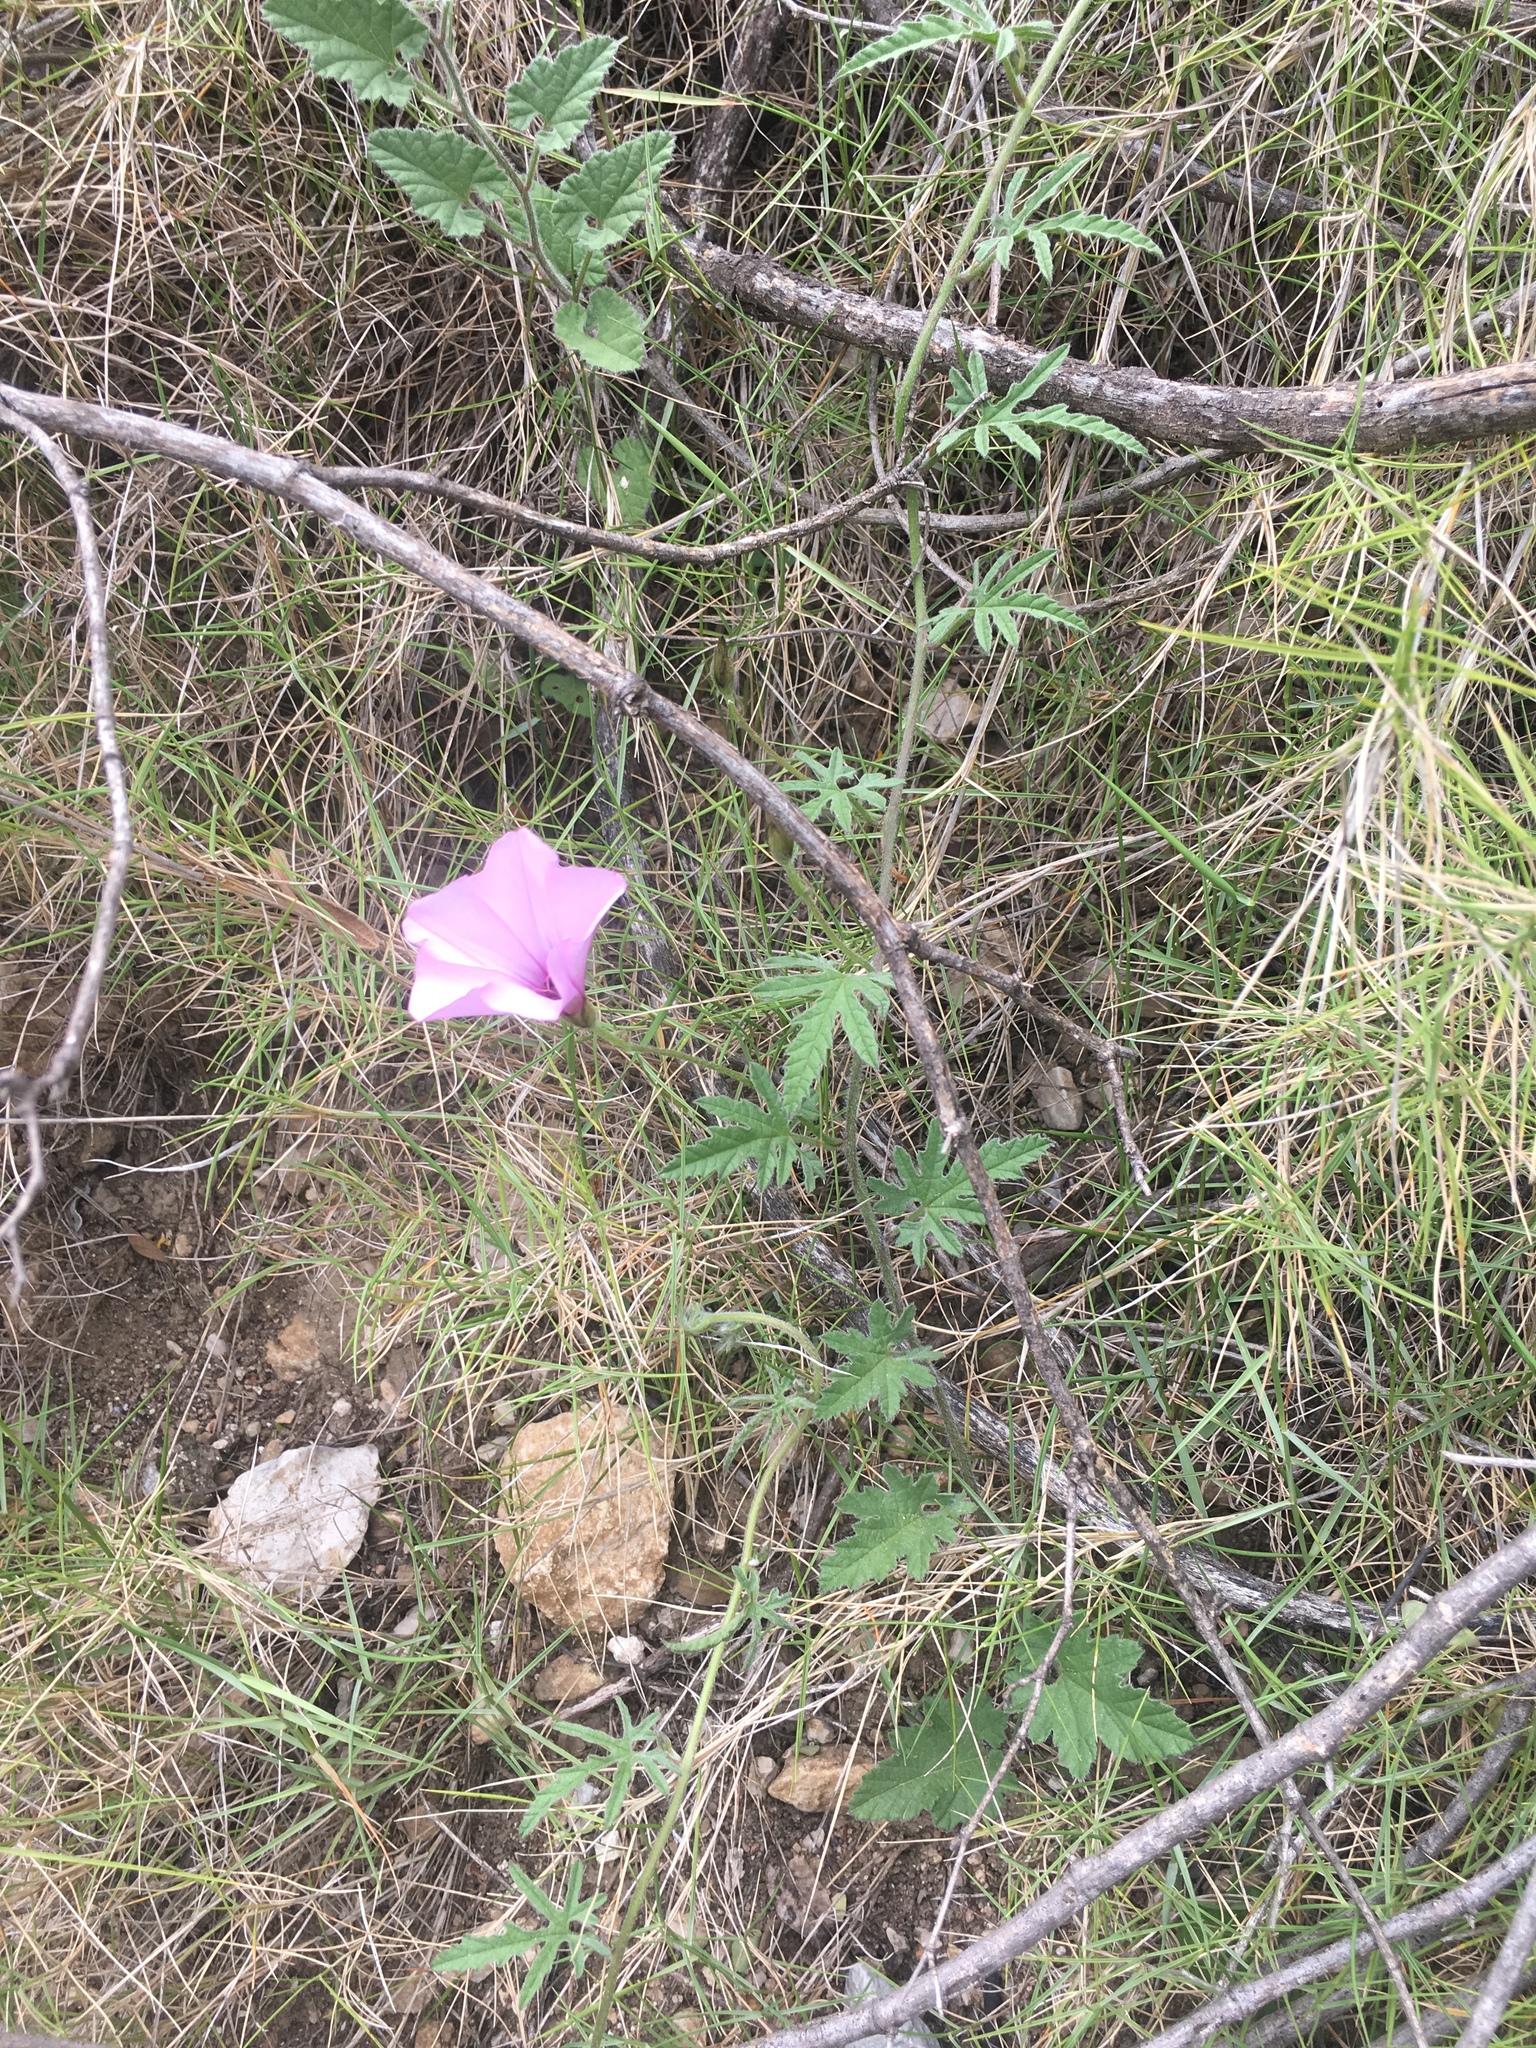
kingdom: Plantae
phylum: Tracheophyta
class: Magnoliopsida
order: Solanales
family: Convolvulaceae
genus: Convolvulus
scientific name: Convolvulus althaeoides
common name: Mallow bindweed
